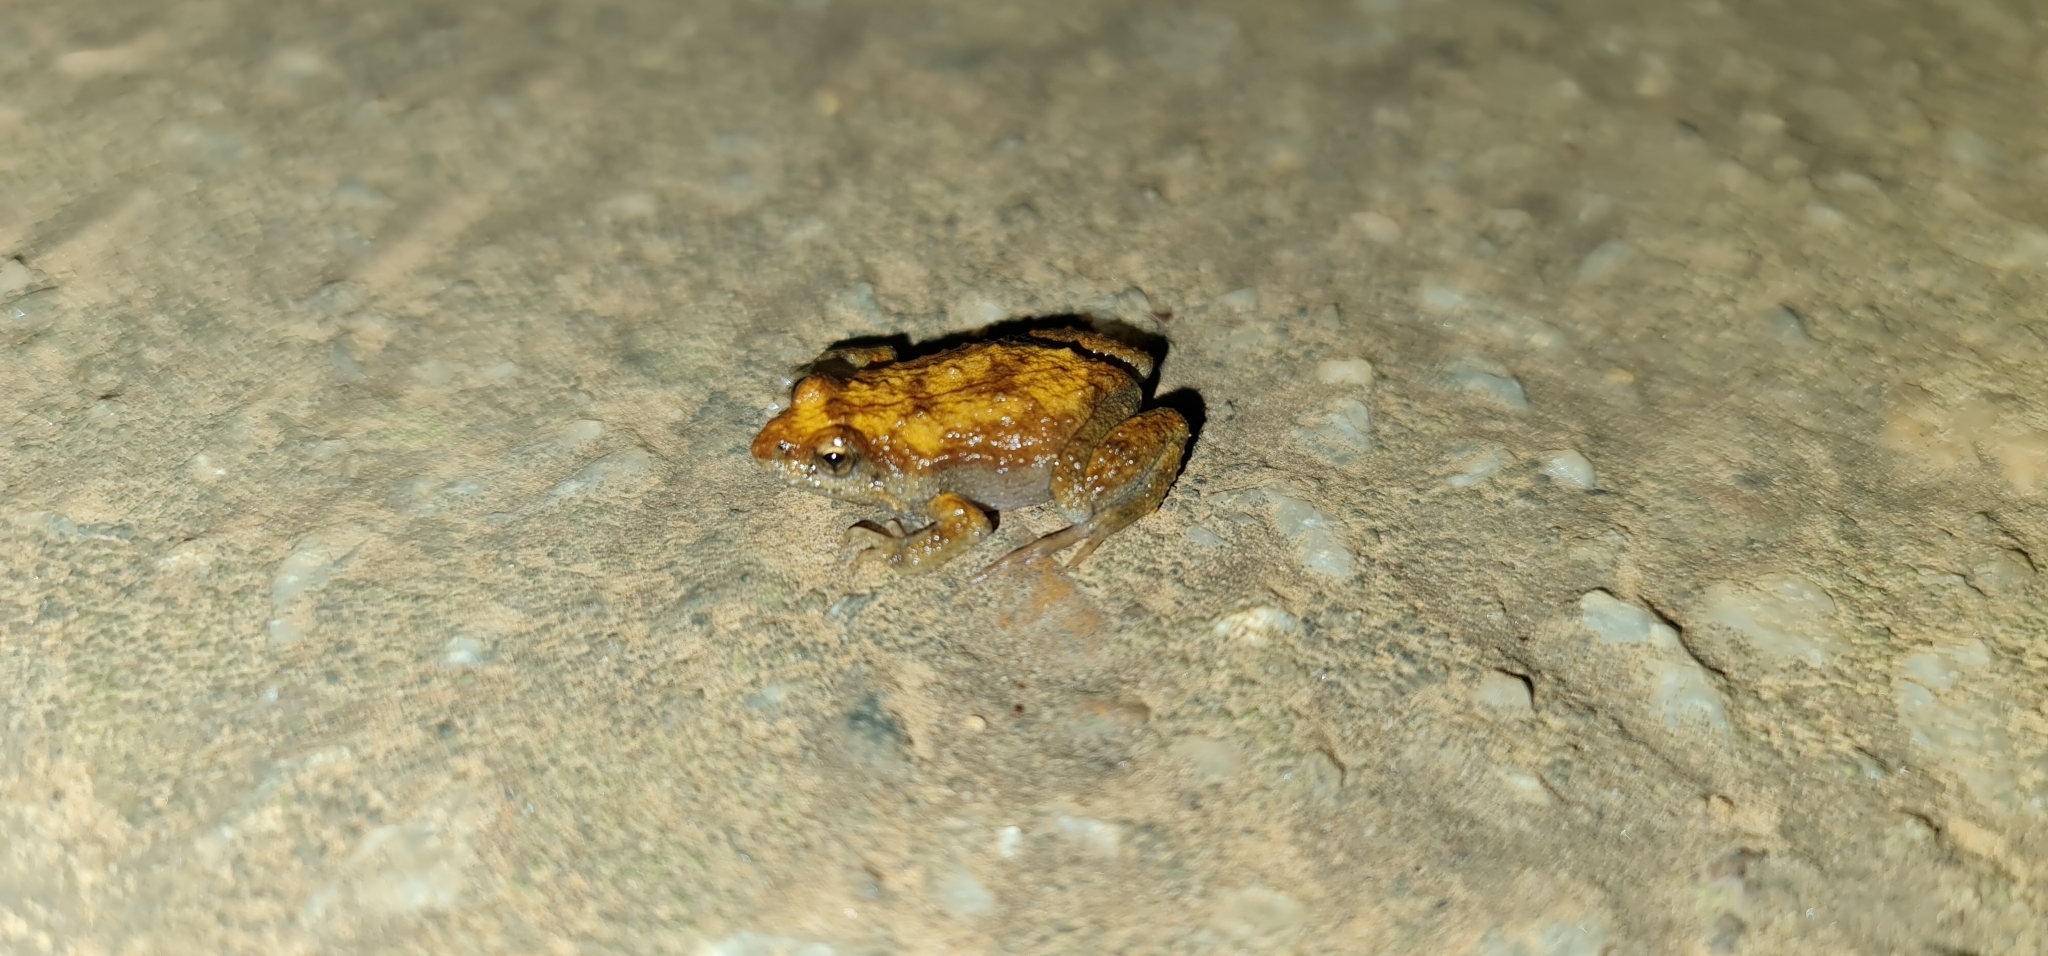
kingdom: Animalia
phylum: Chordata
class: Amphibia
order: Anura
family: Myobatrachidae
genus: Crinia
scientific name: Crinia signifera
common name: Brown froglet
